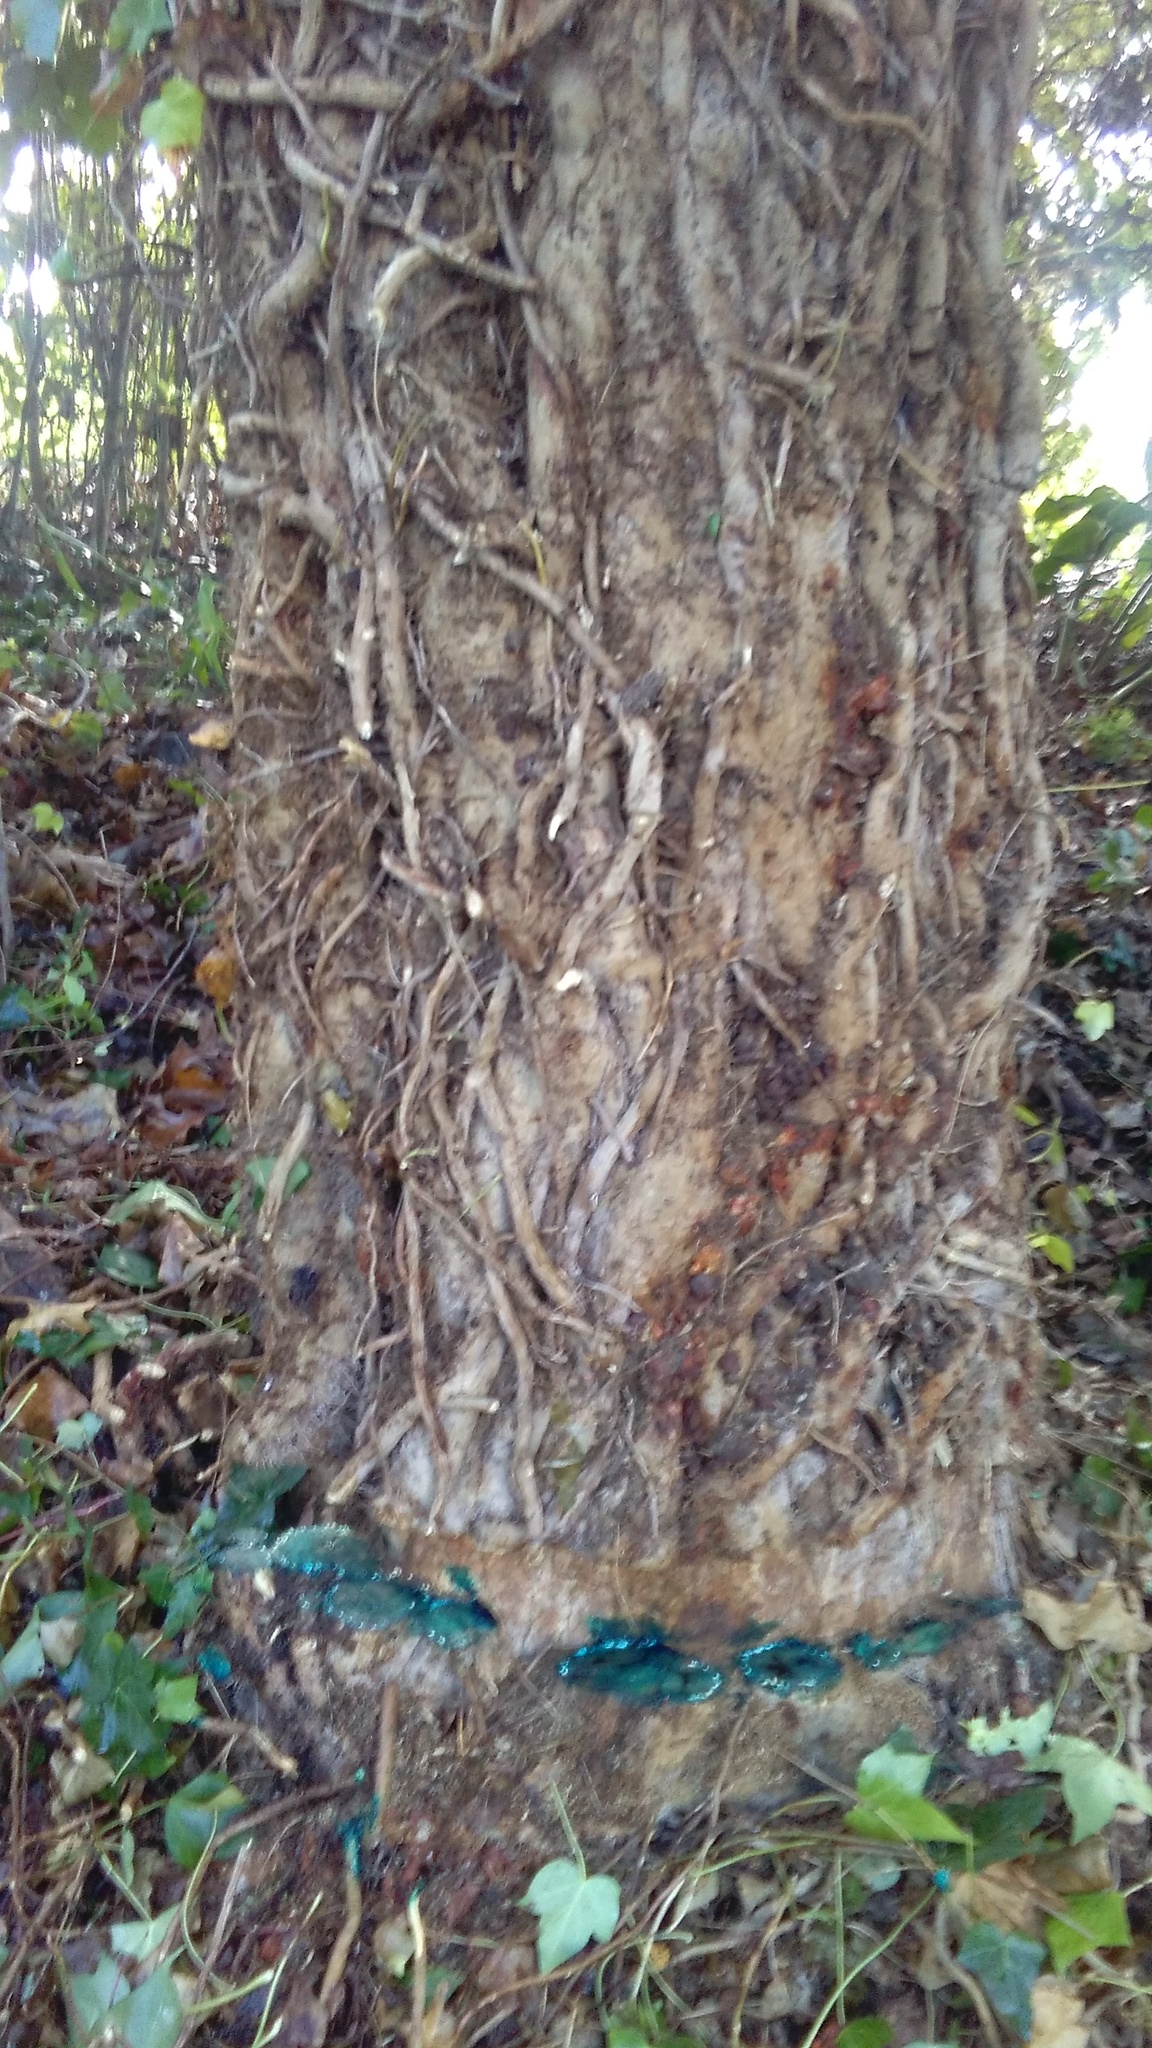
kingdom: Plantae
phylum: Tracheophyta
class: Magnoliopsida
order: Apiales
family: Araliaceae
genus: Hedera
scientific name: Hedera helix
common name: Ivy
